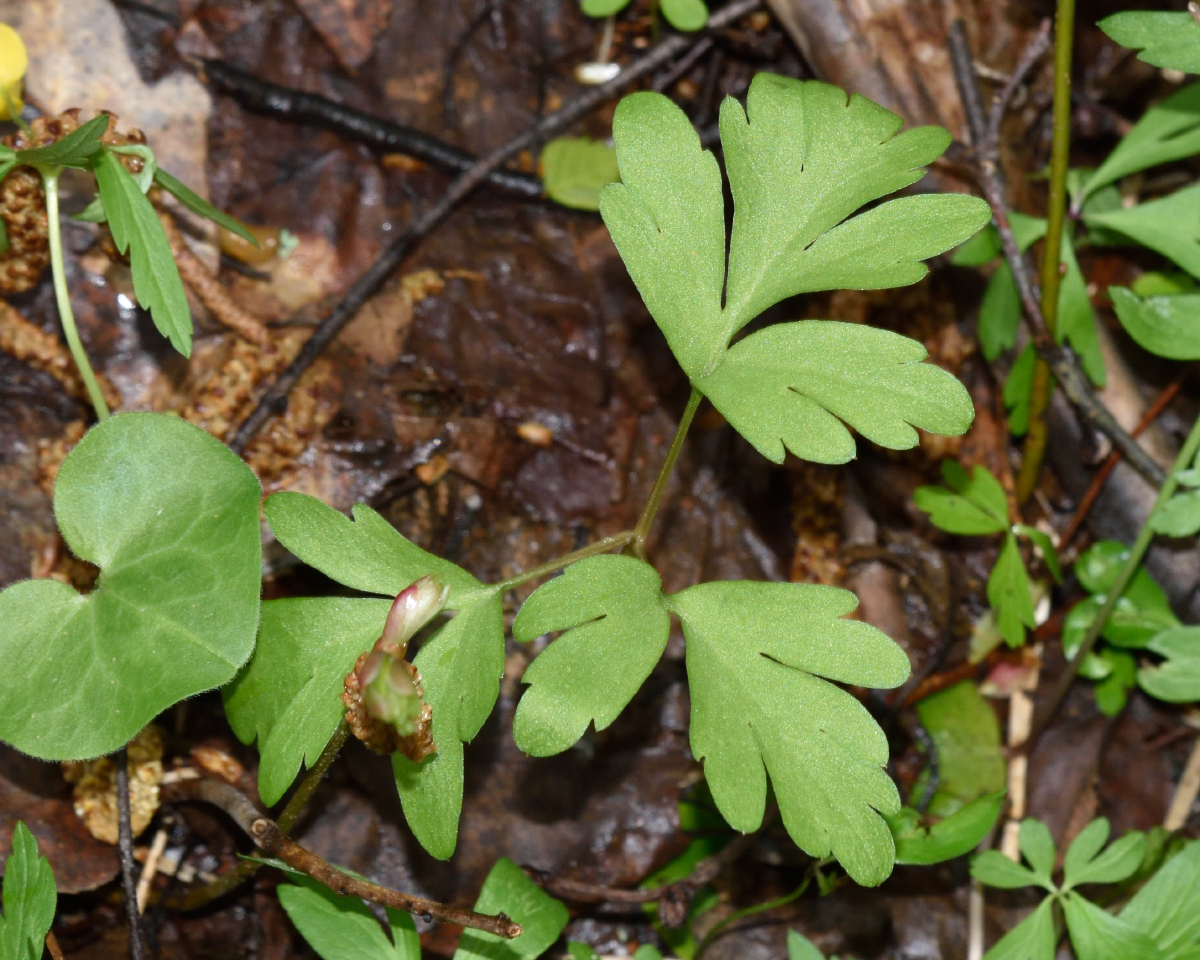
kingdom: Plantae
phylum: Tracheophyta
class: Magnoliopsida
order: Dipsacales
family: Viburnaceae
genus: Adoxa
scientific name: Adoxa moschatellina
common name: Moschatel
